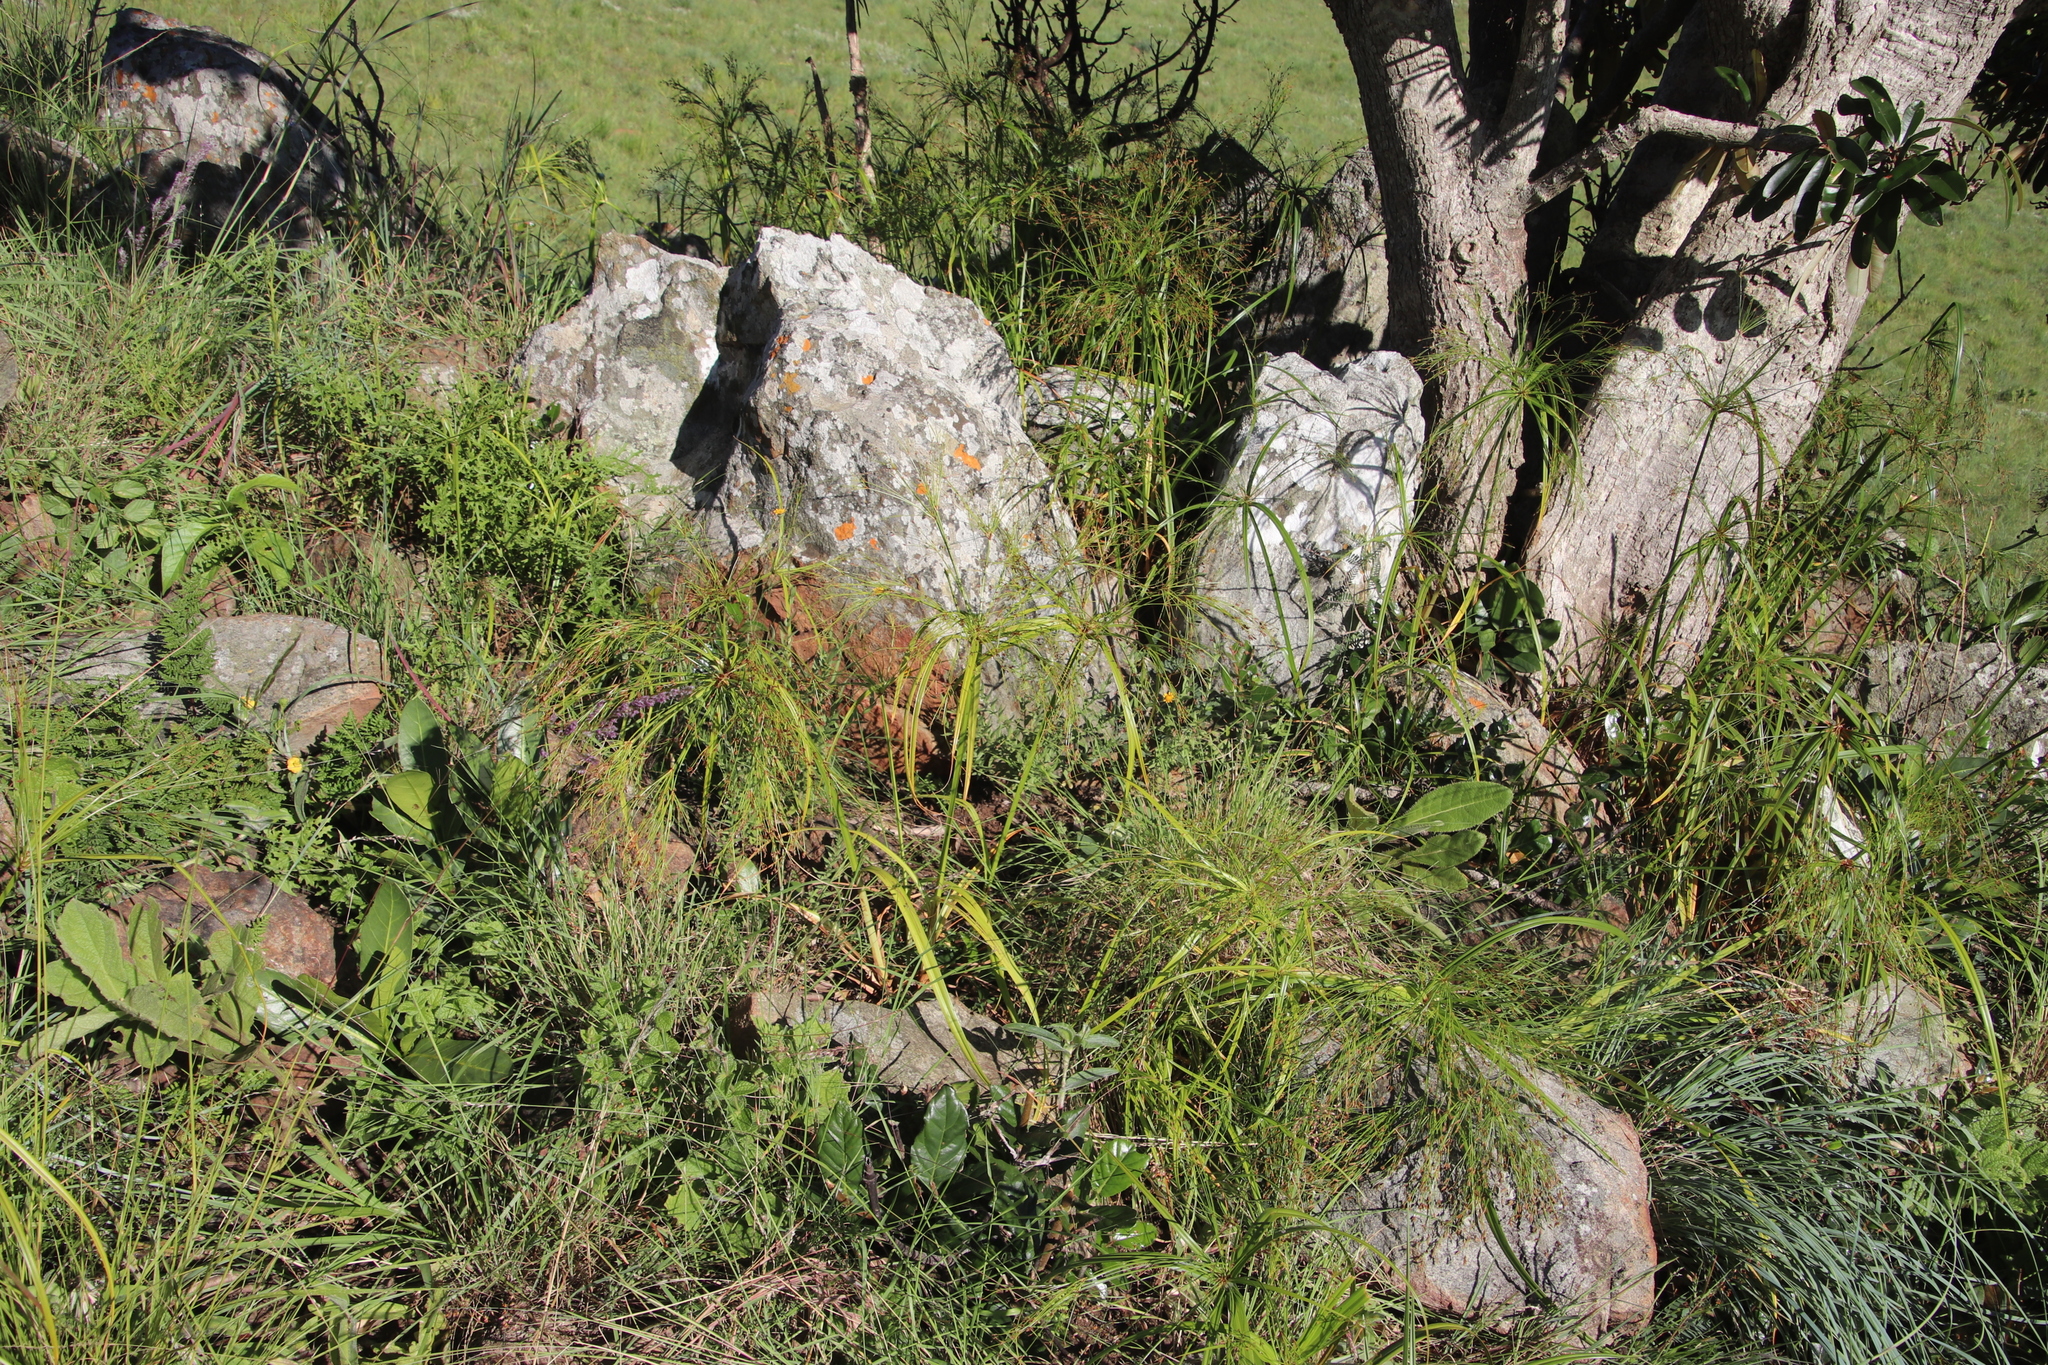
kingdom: Plantae
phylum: Tracheophyta
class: Liliopsida
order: Poales
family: Cyperaceae
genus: Cyperus
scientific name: Cyperus leptocladus
